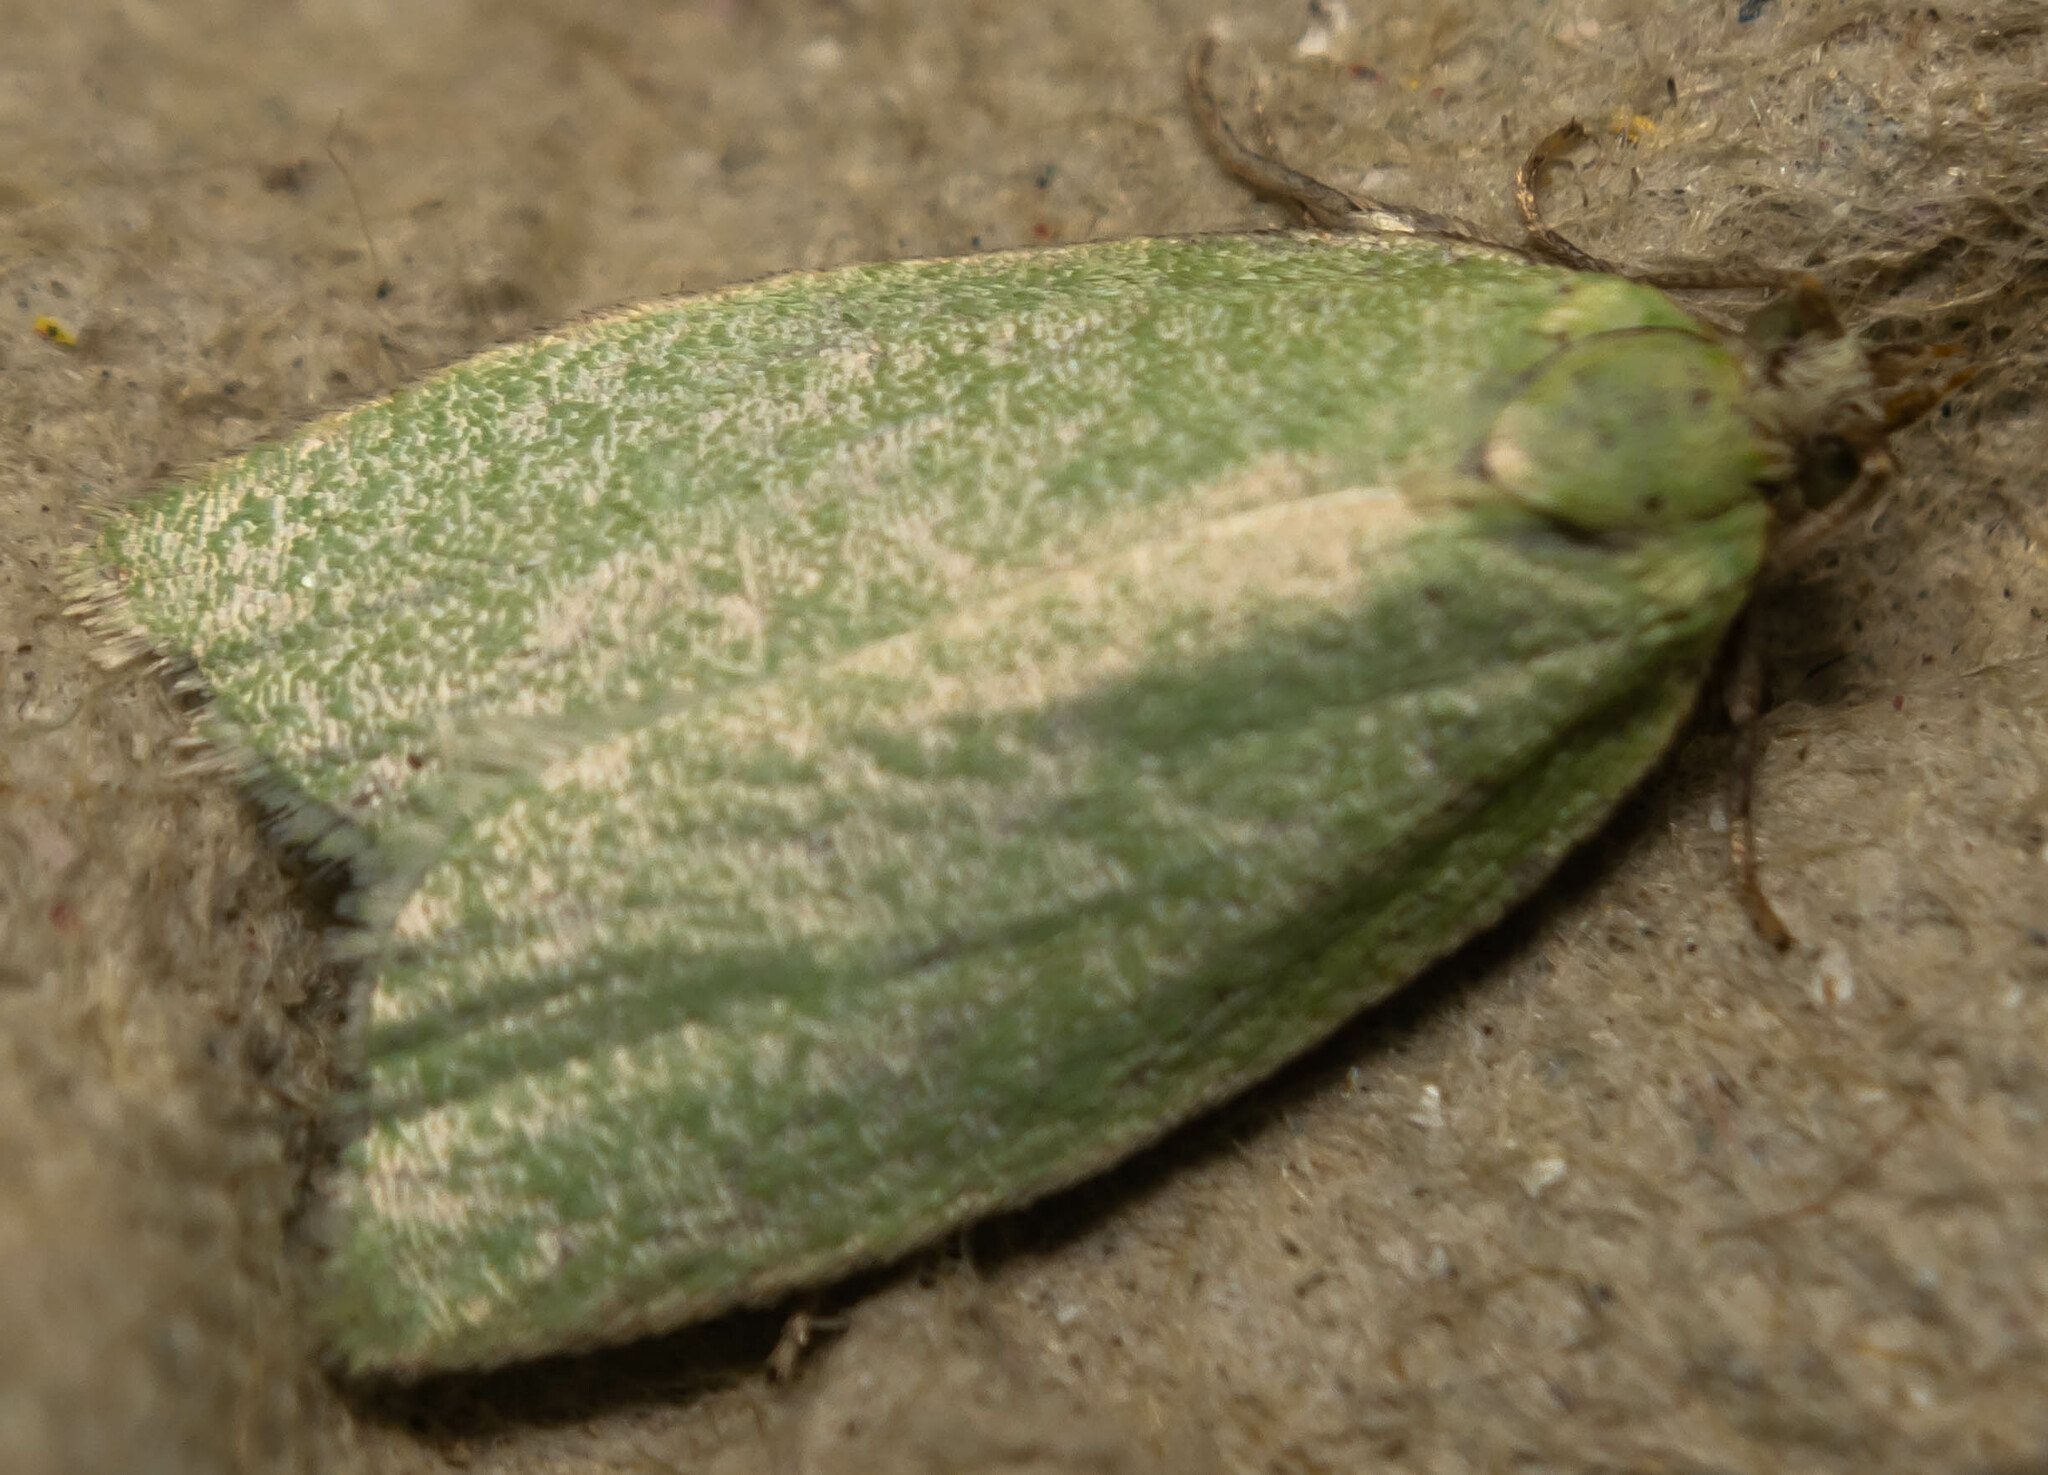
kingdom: Animalia
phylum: Arthropoda
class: Insecta
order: Lepidoptera
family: Tortricidae
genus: Tortrix
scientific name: Tortrix viridana
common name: Green oak tortrix
